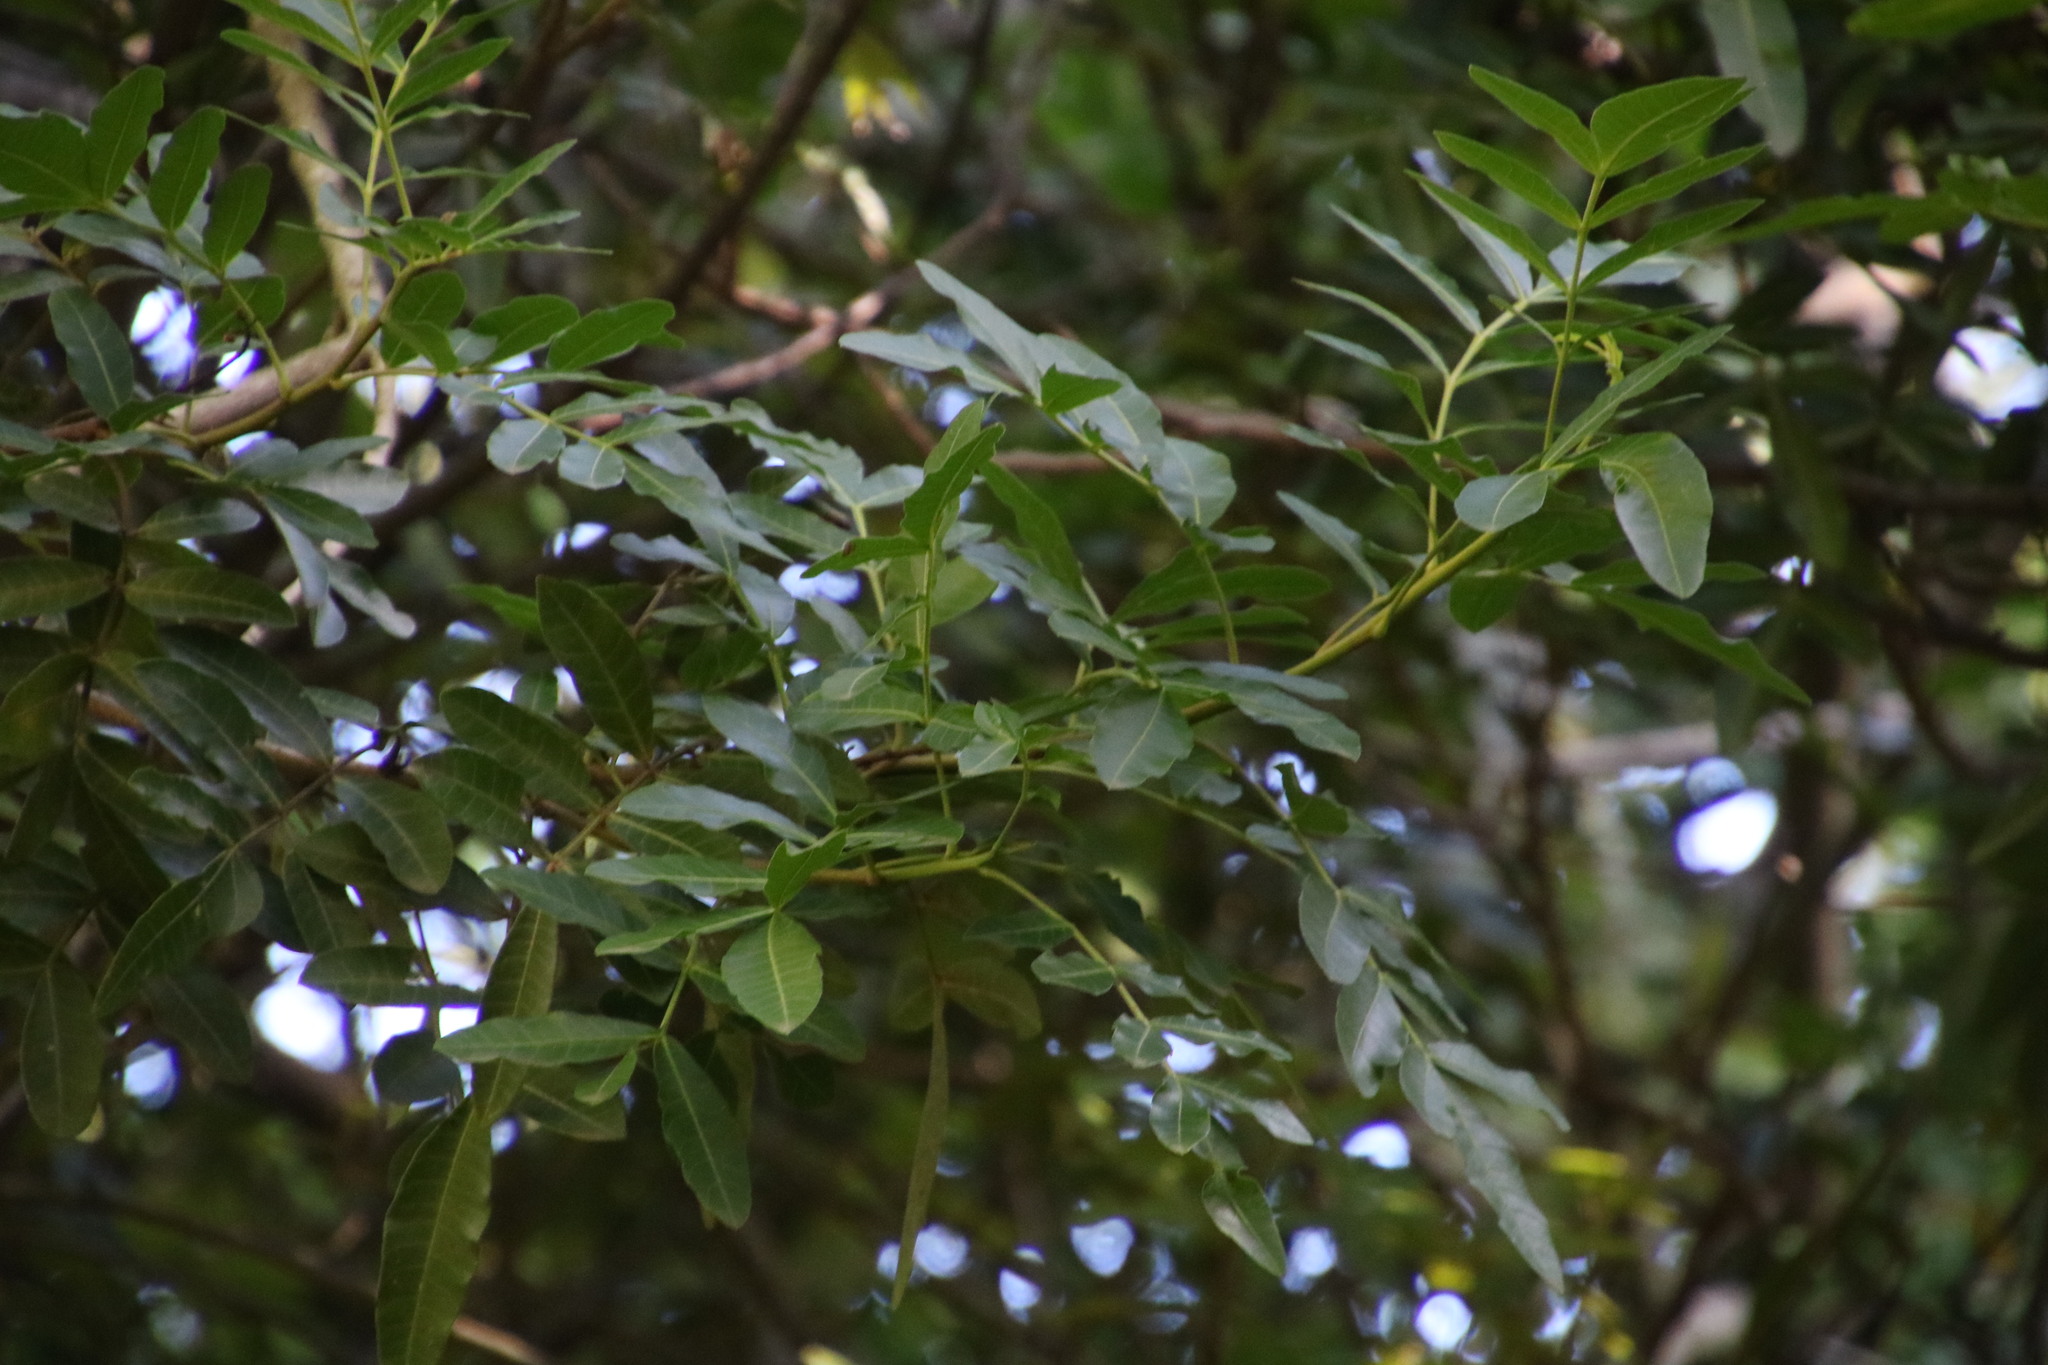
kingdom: Plantae
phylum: Tracheophyta
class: Magnoliopsida
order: Sapindales
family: Anacardiaceae
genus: Schinus
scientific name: Schinus terebinthifolia
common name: Brazilian peppertree
